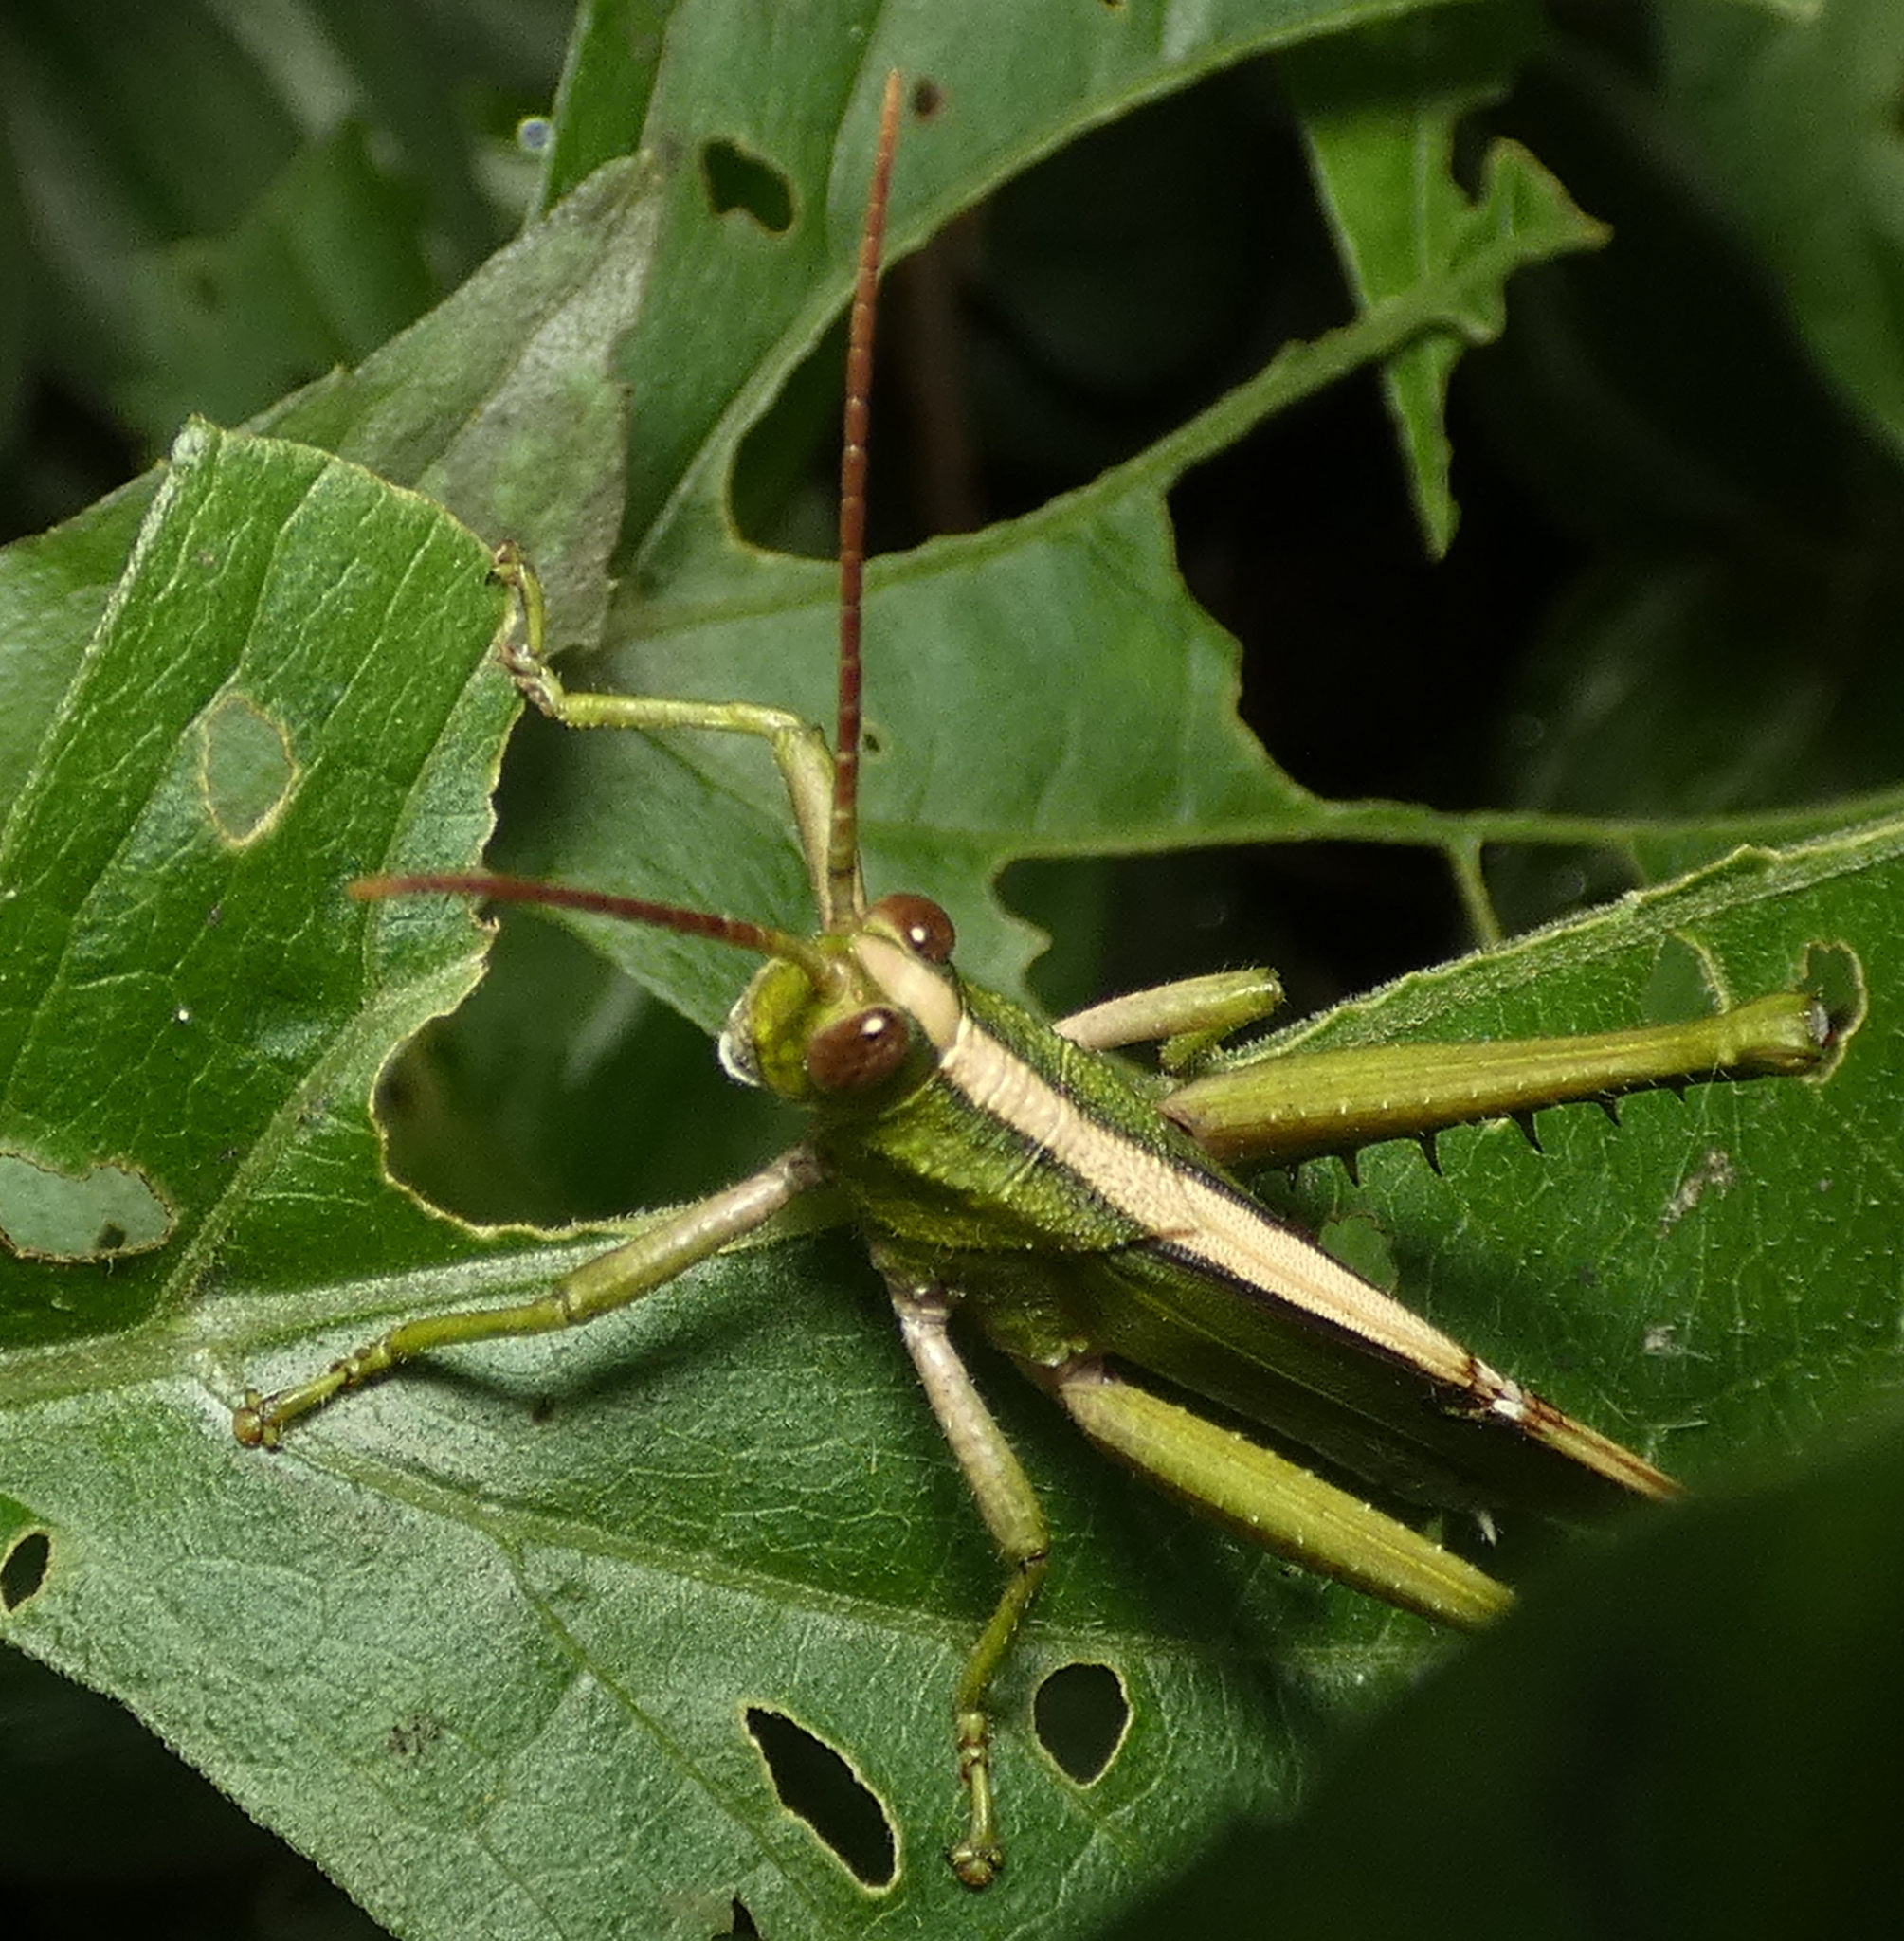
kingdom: Animalia
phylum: Arthropoda
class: Insecta
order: Orthoptera
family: Romaleidae
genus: Agriacris
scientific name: Agriacris auripennis
